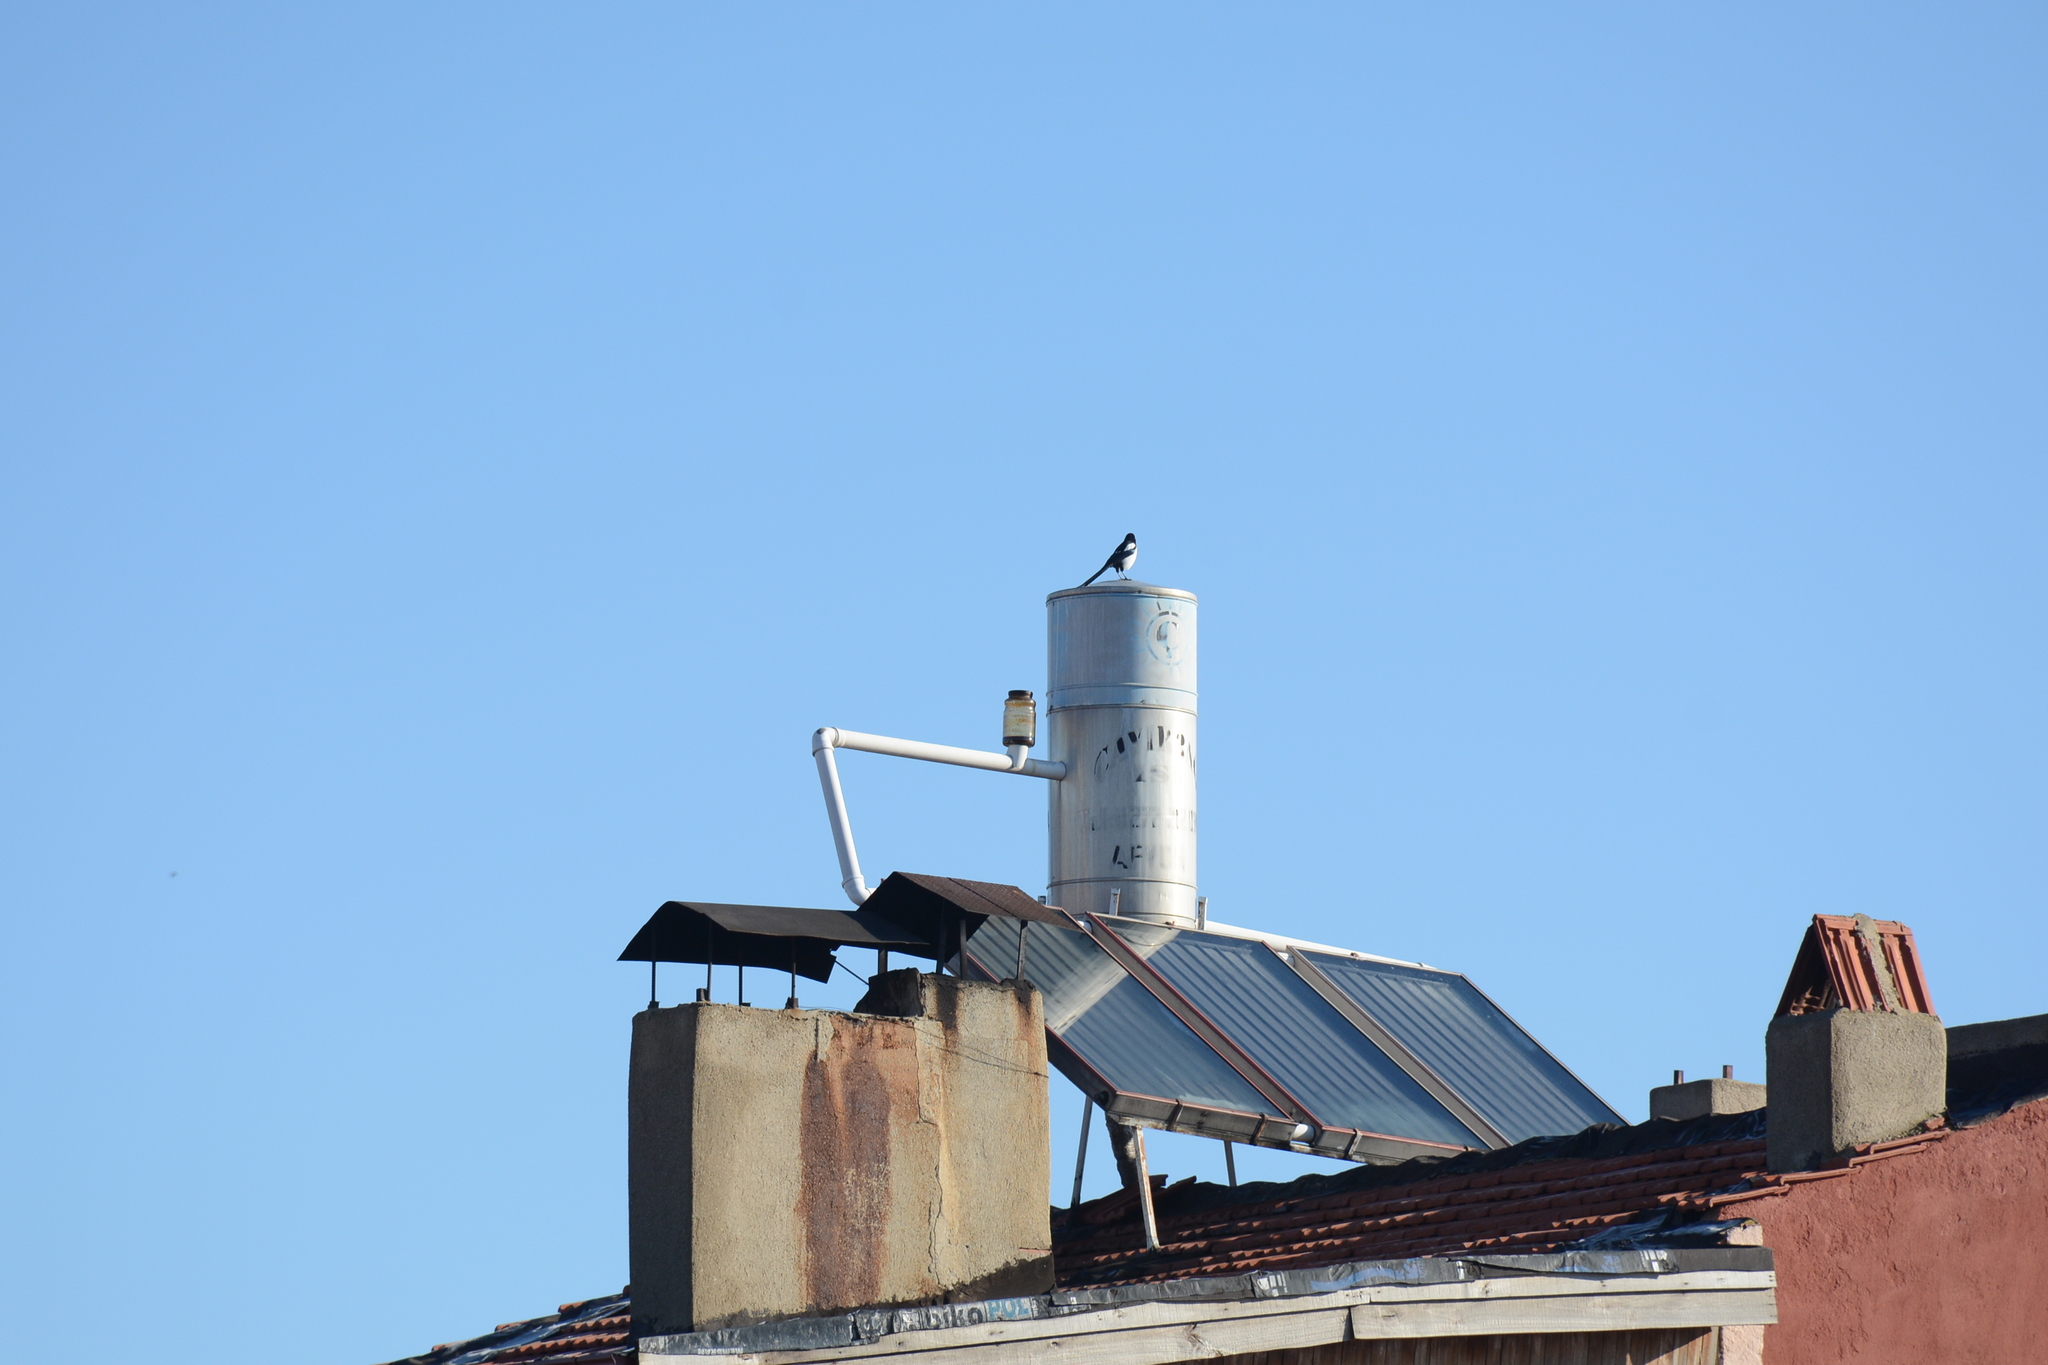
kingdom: Animalia
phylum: Chordata
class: Aves
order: Passeriformes
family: Corvidae
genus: Pica
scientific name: Pica pica
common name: Eurasian magpie
